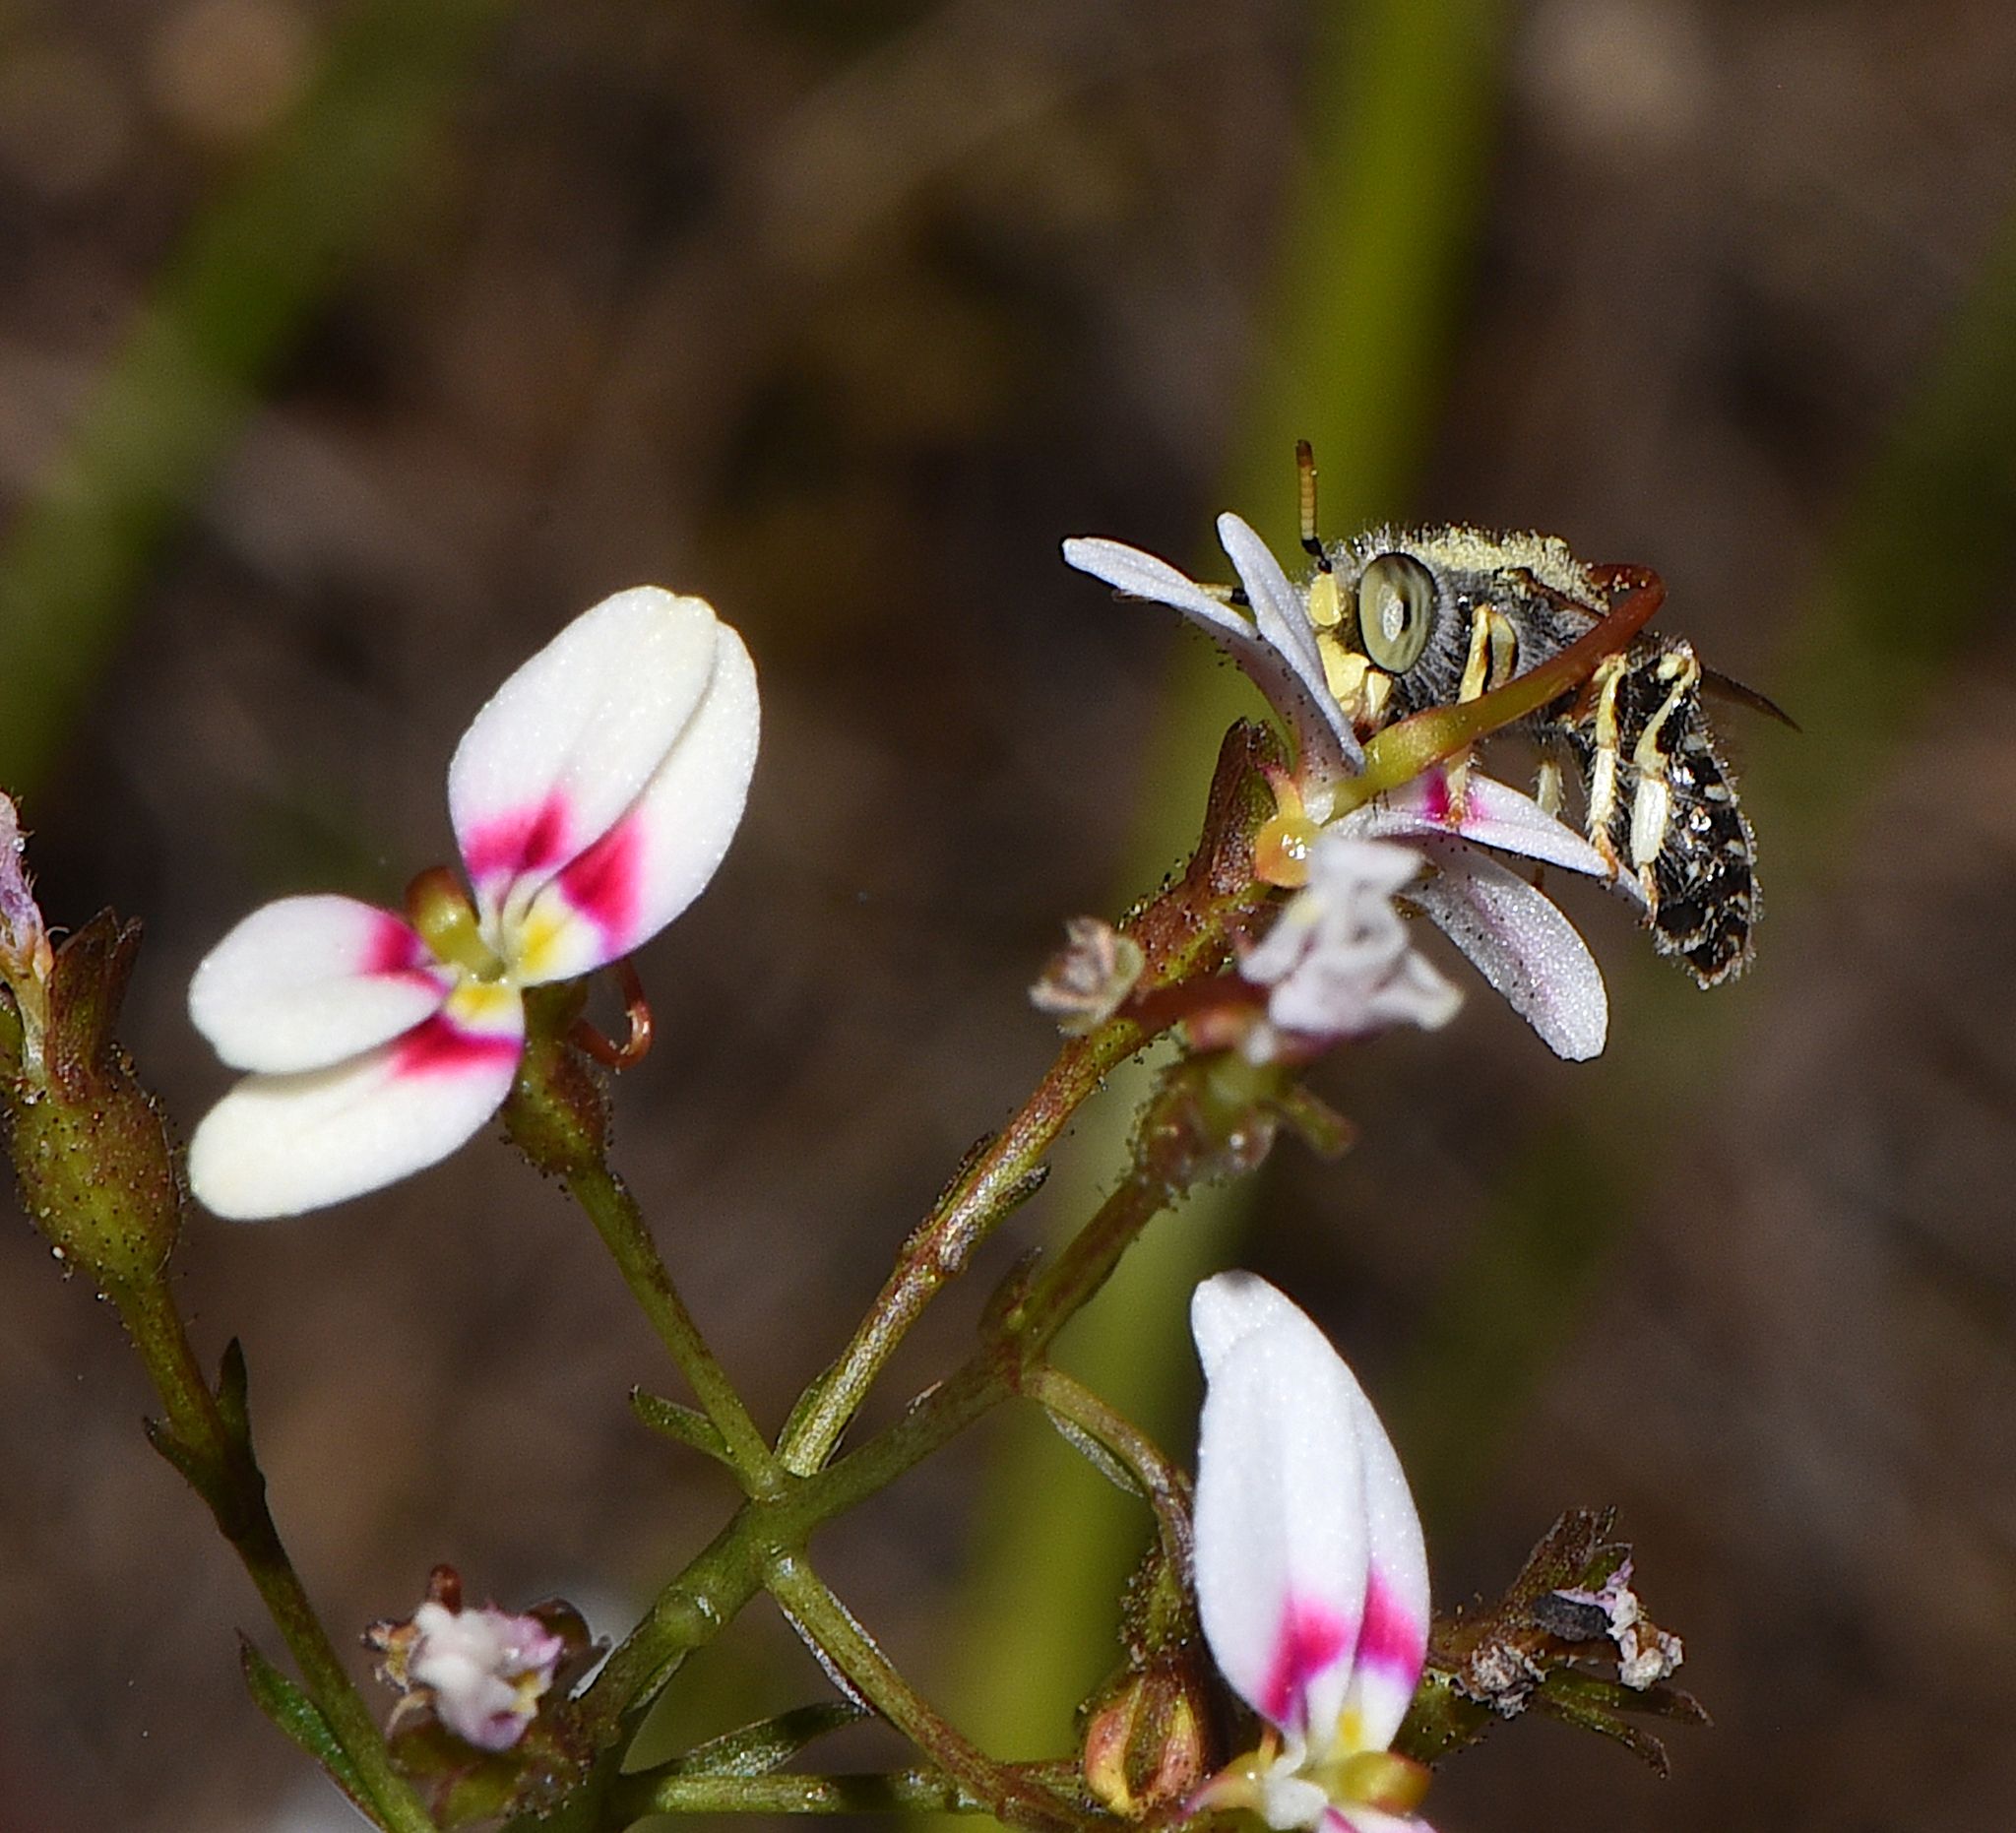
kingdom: Animalia
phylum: Arthropoda
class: Insecta
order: Hymenoptera
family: Colletidae
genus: Neopasiphae
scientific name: Neopasiphae simplicior
